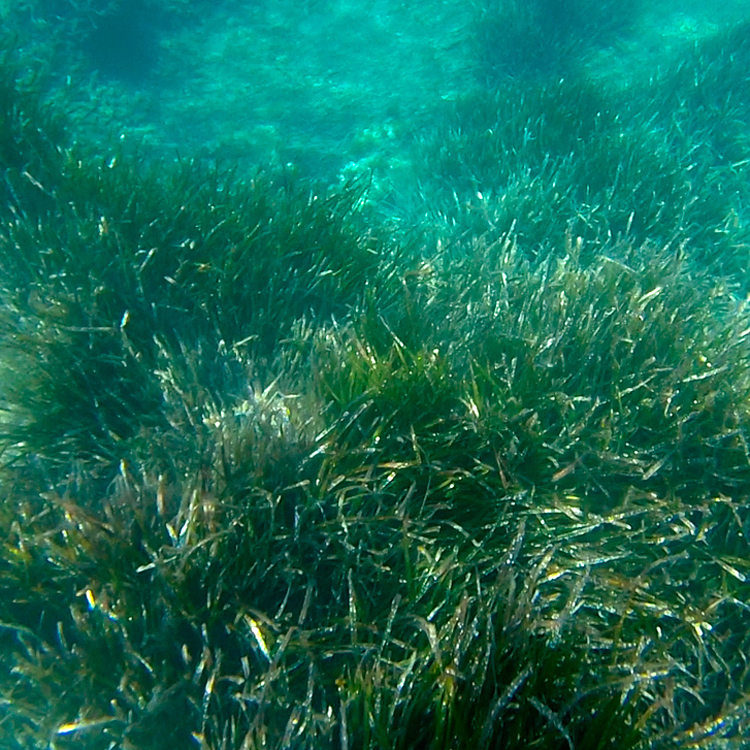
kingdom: Plantae
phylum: Tracheophyta
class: Liliopsida
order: Alismatales
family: Posidoniaceae
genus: Posidonia
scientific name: Posidonia oceanica
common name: Mediterranean tapeweed
